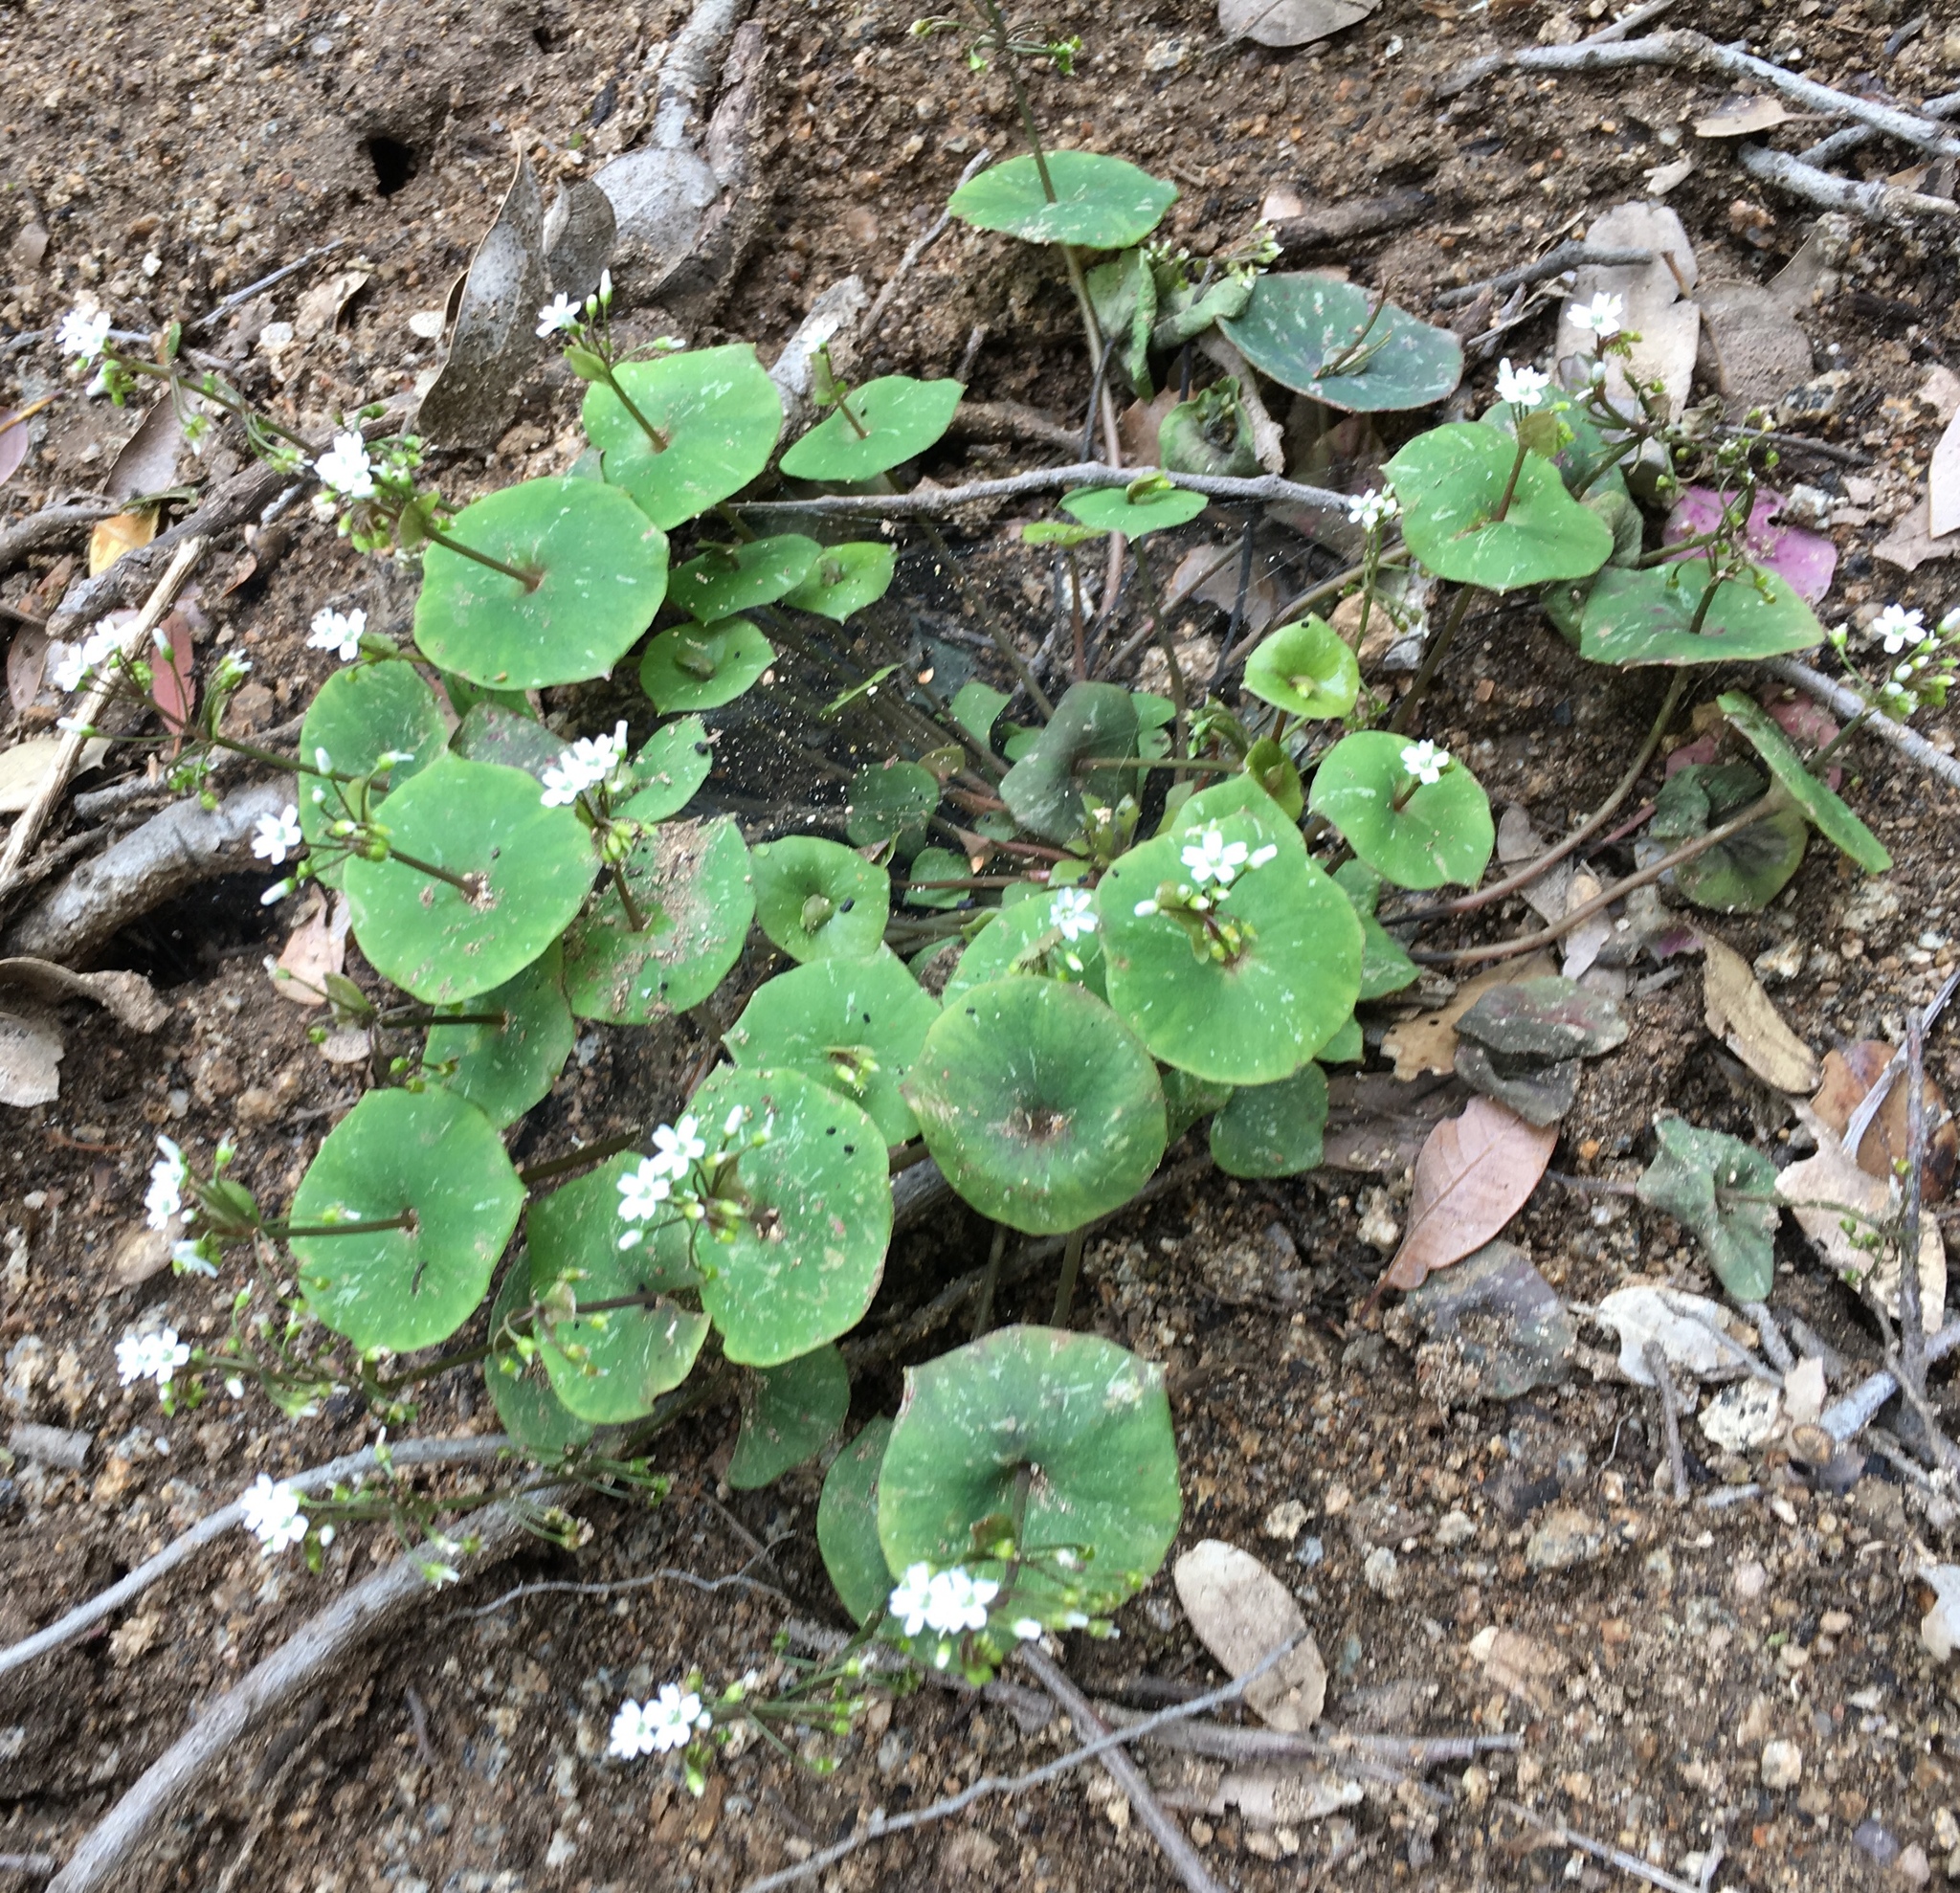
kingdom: Plantae
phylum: Tracheophyta
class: Magnoliopsida
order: Caryophyllales
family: Montiaceae
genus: Claytonia
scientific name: Claytonia perfoliata
